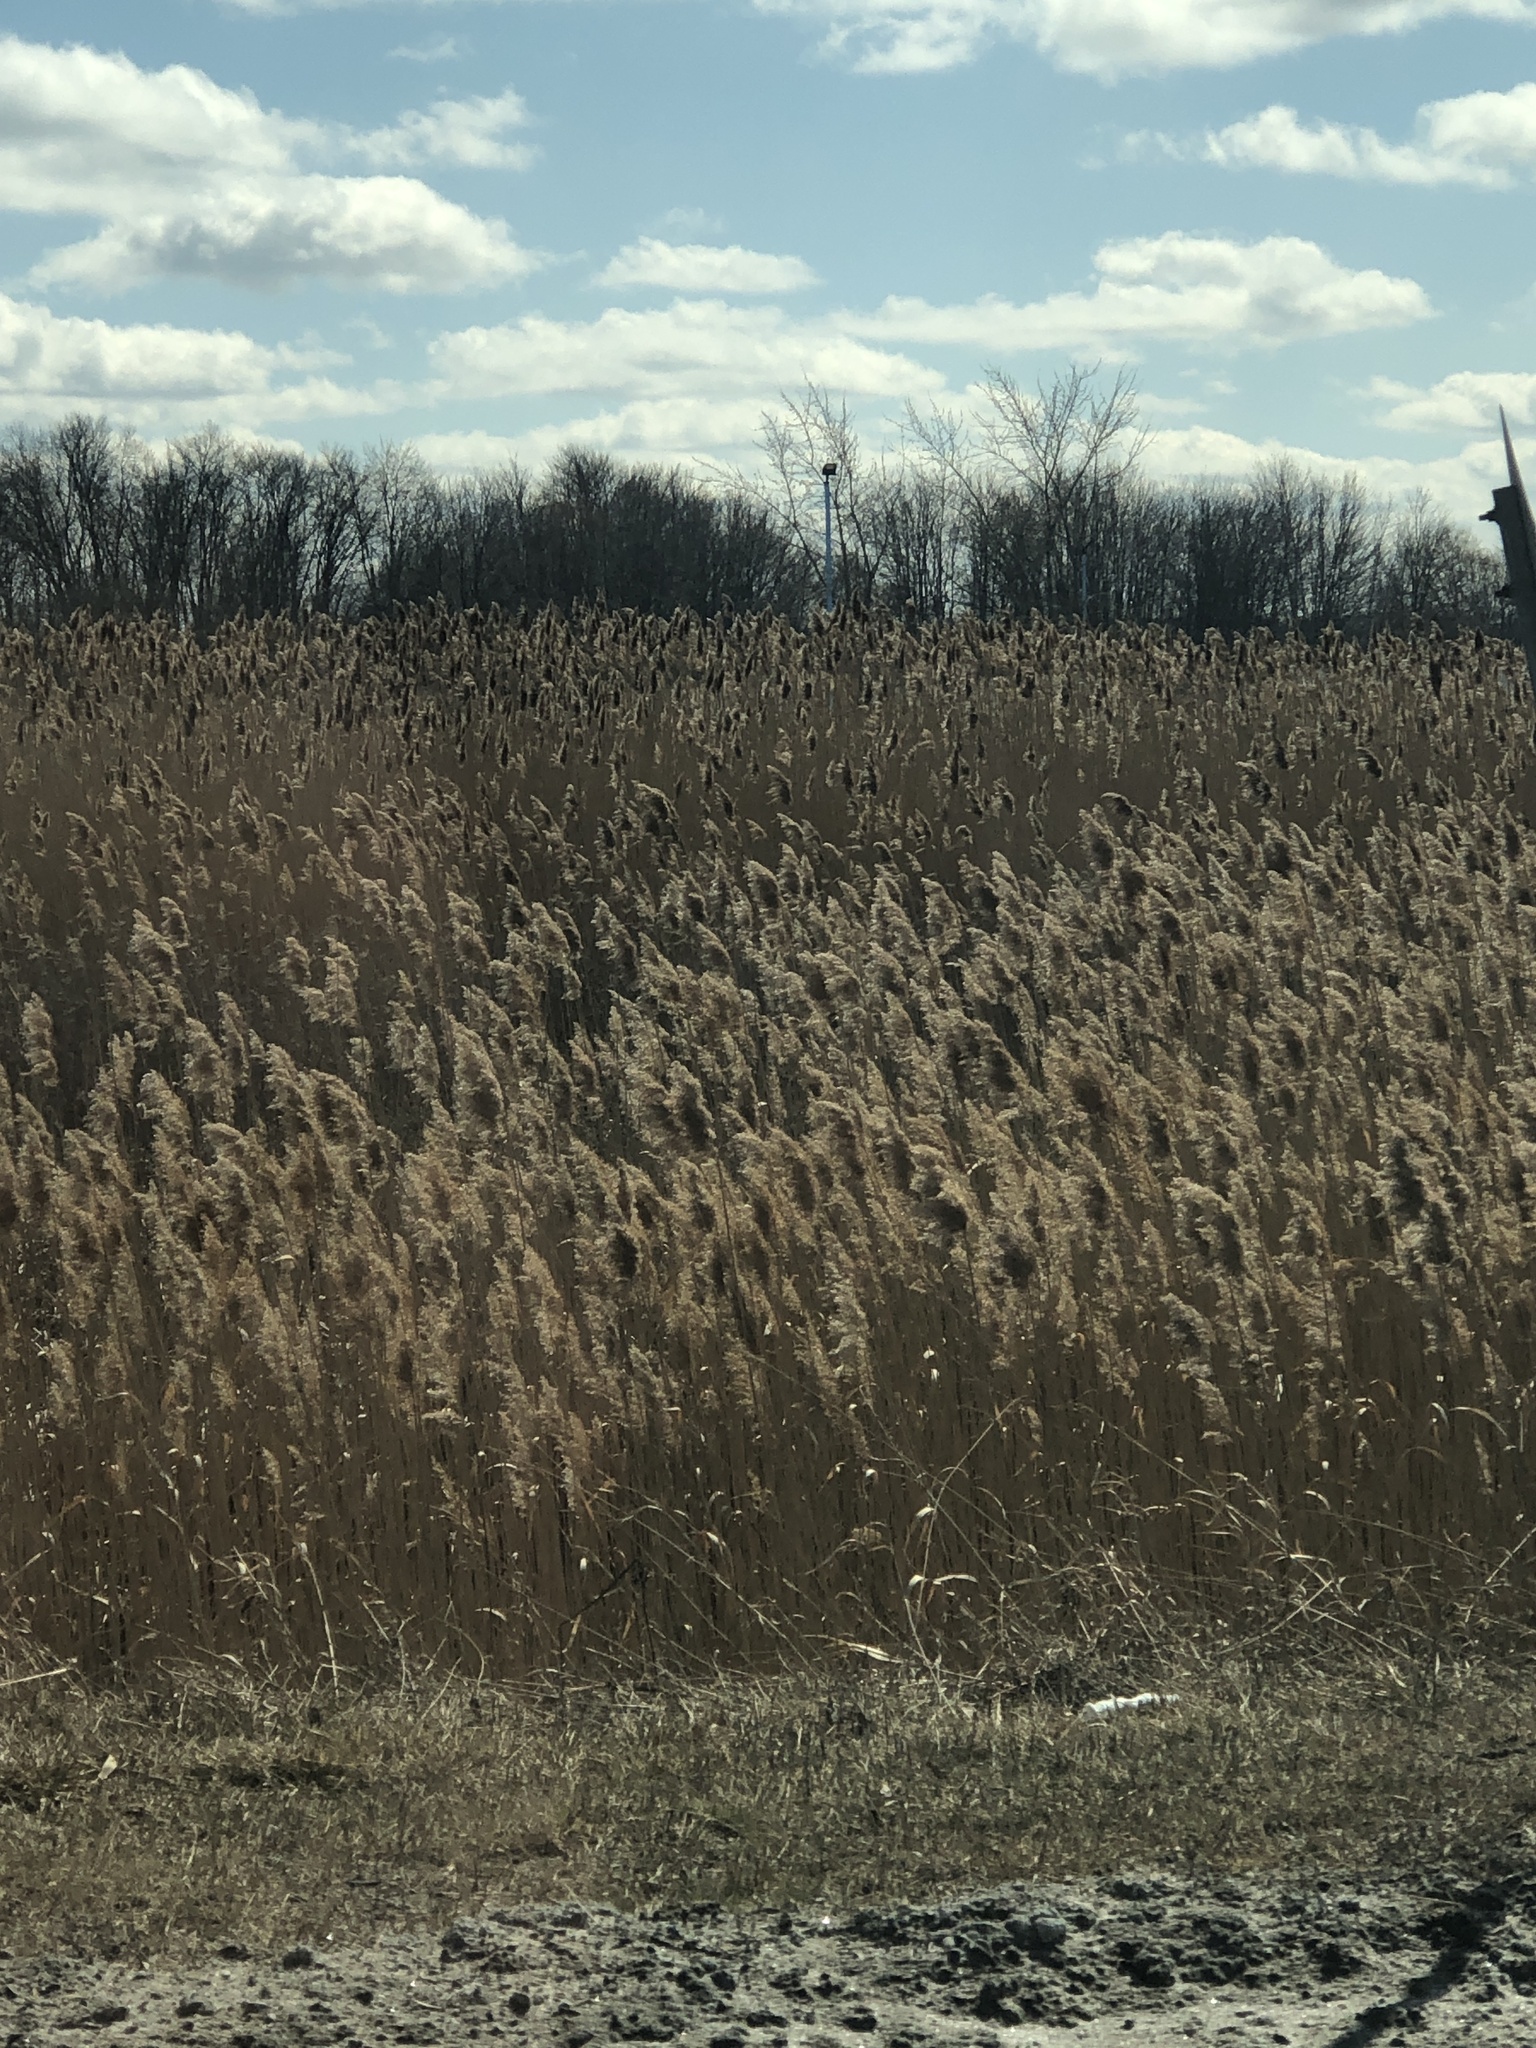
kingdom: Plantae
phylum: Tracheophyta
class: Liliopsida
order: Poales
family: Poaceae
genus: Phragmites
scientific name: Phragmites australis
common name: Common reed
